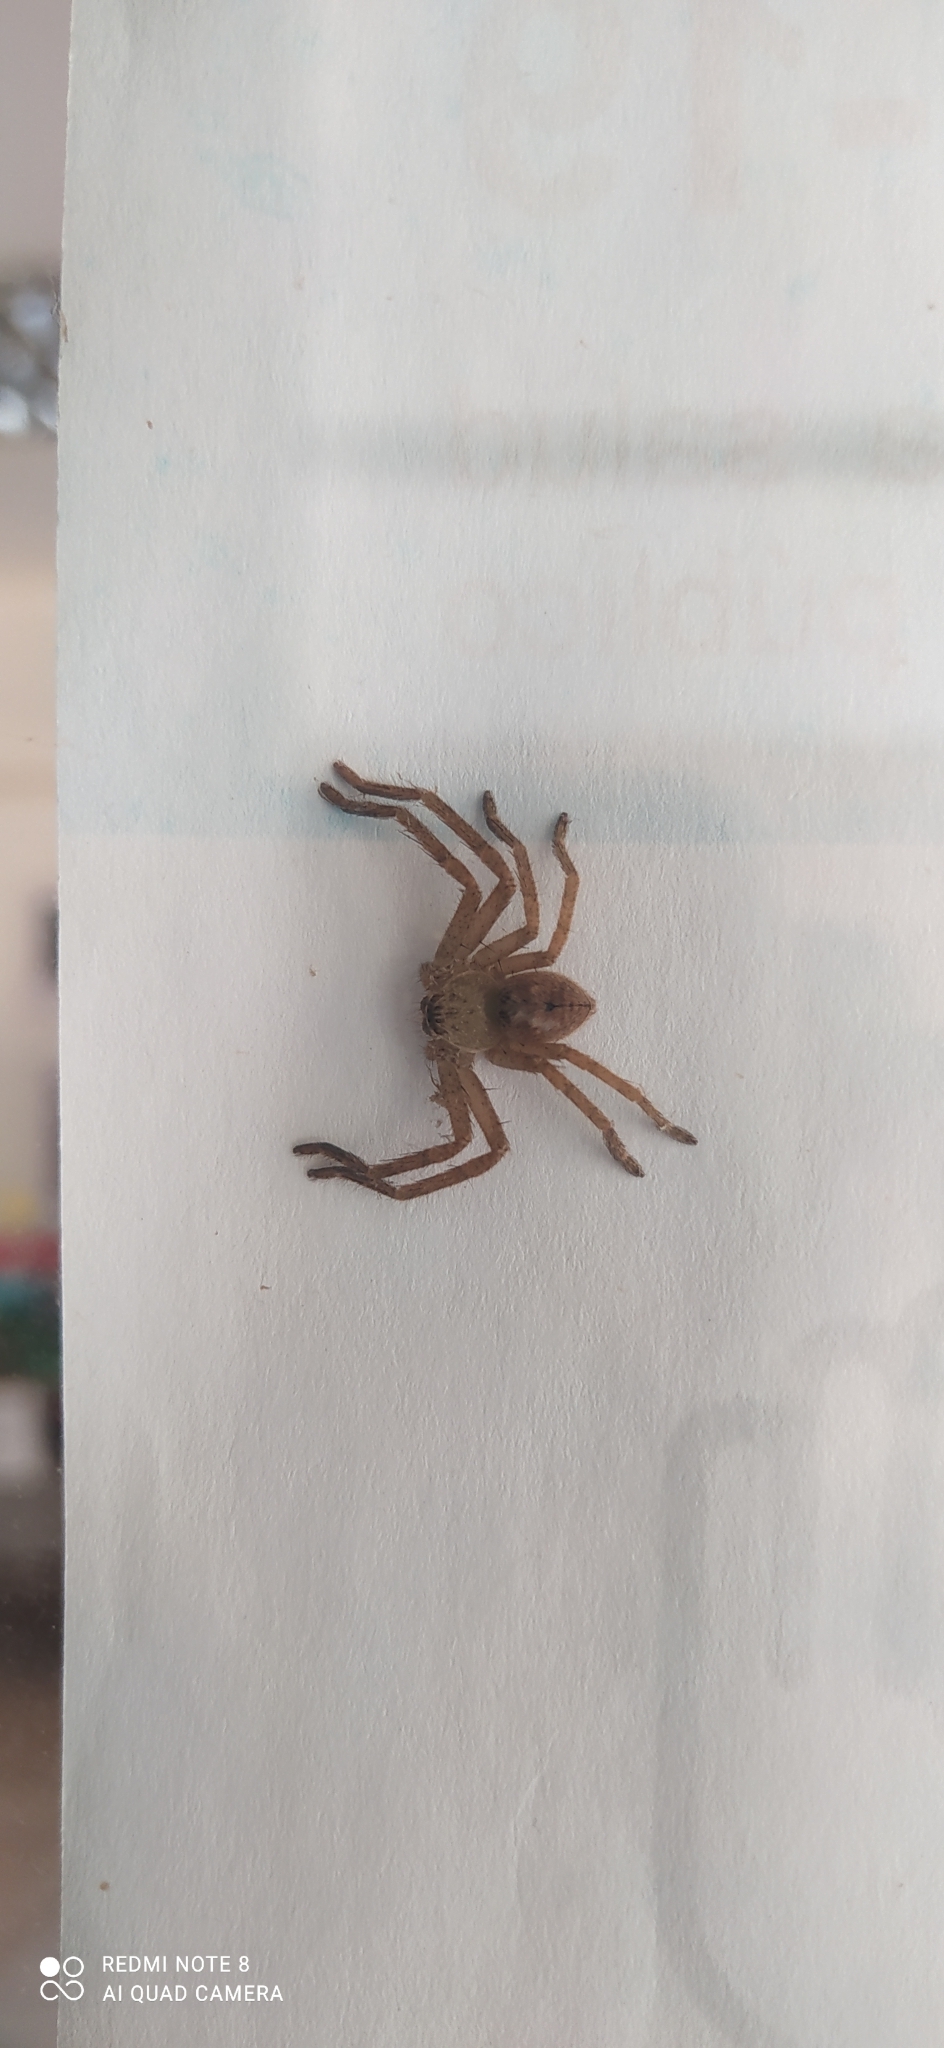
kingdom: Animalia
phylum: Arthropoda
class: Arachnida
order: Araneae
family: Sparassidae
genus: Polybetes
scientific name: Polybetes rapidus
